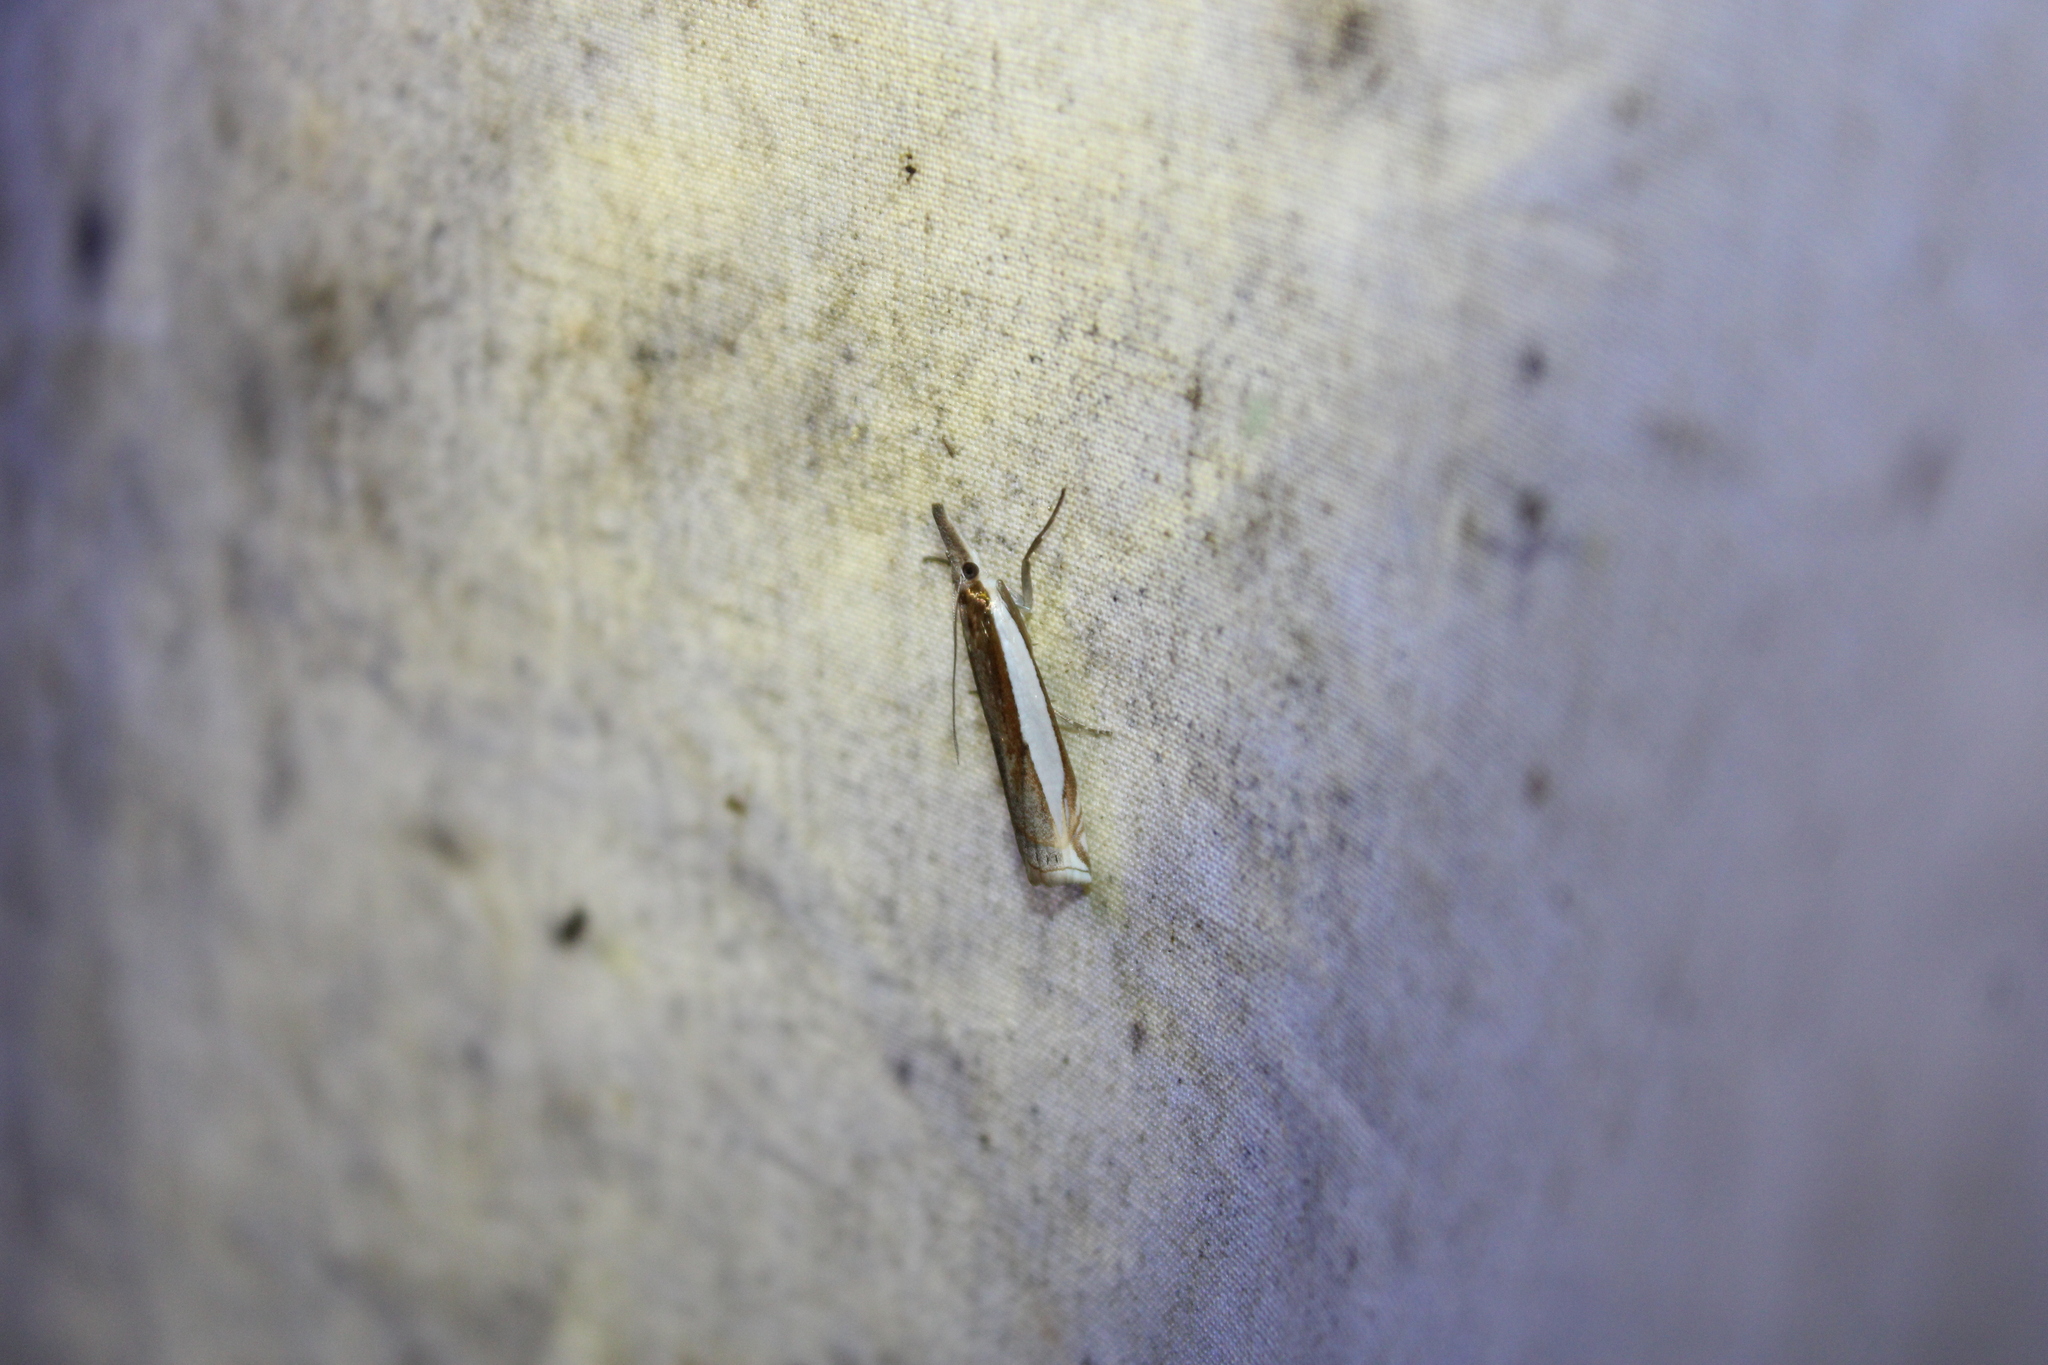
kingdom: Animalia
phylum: Arthropoda
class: Insecta
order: Lepidoptera
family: Crambidae
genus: Crambus
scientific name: Crambus leachellus
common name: Leach's grass-veneer
